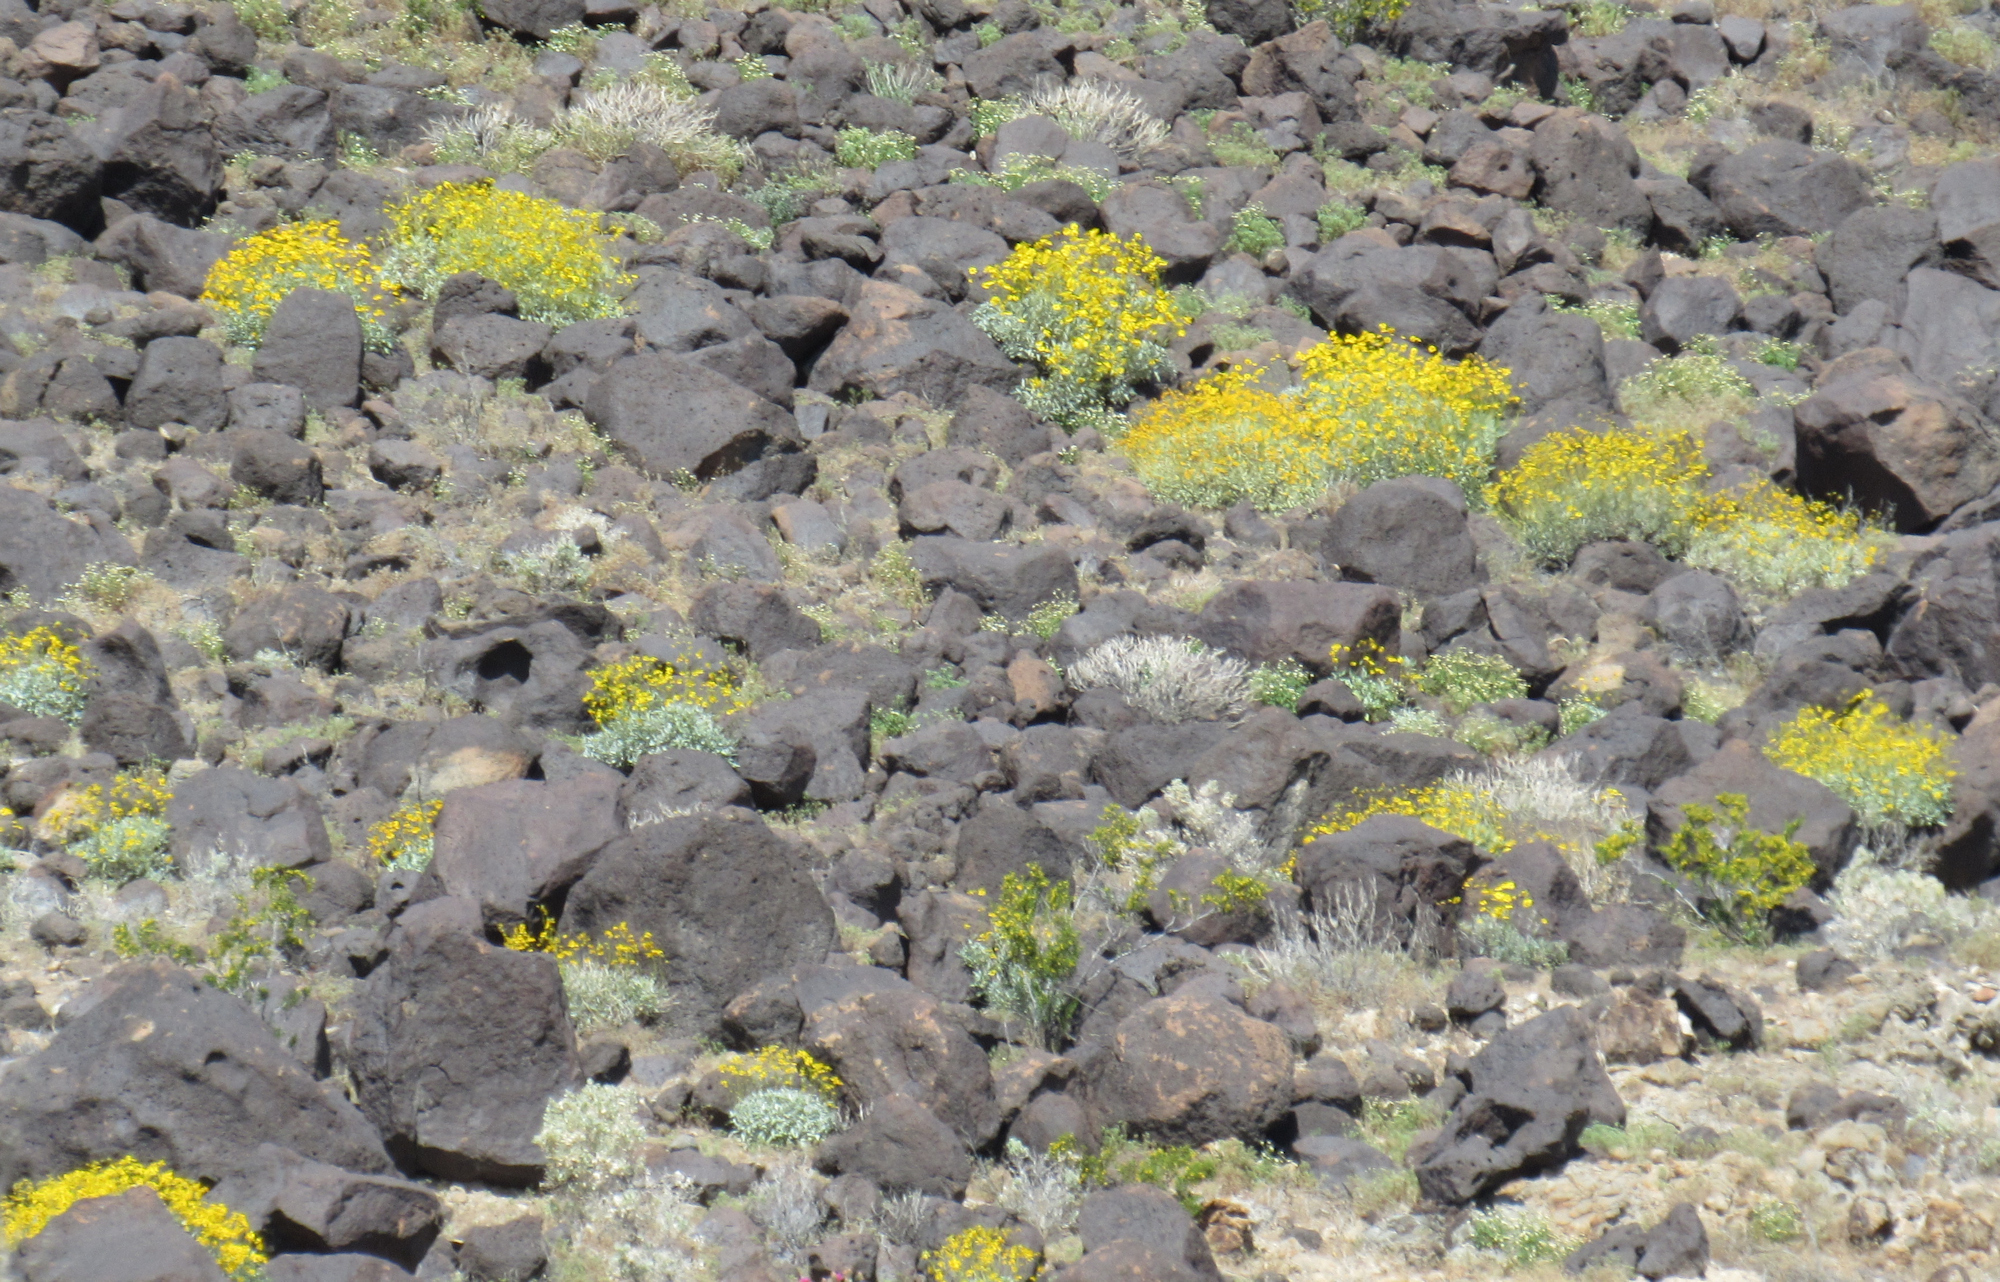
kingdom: Plantae
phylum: Tracheophyta
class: Magnoliopsida
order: Asterales
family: Asteraceae
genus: Encelia
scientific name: Encelia farinosa
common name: Brittlebush
